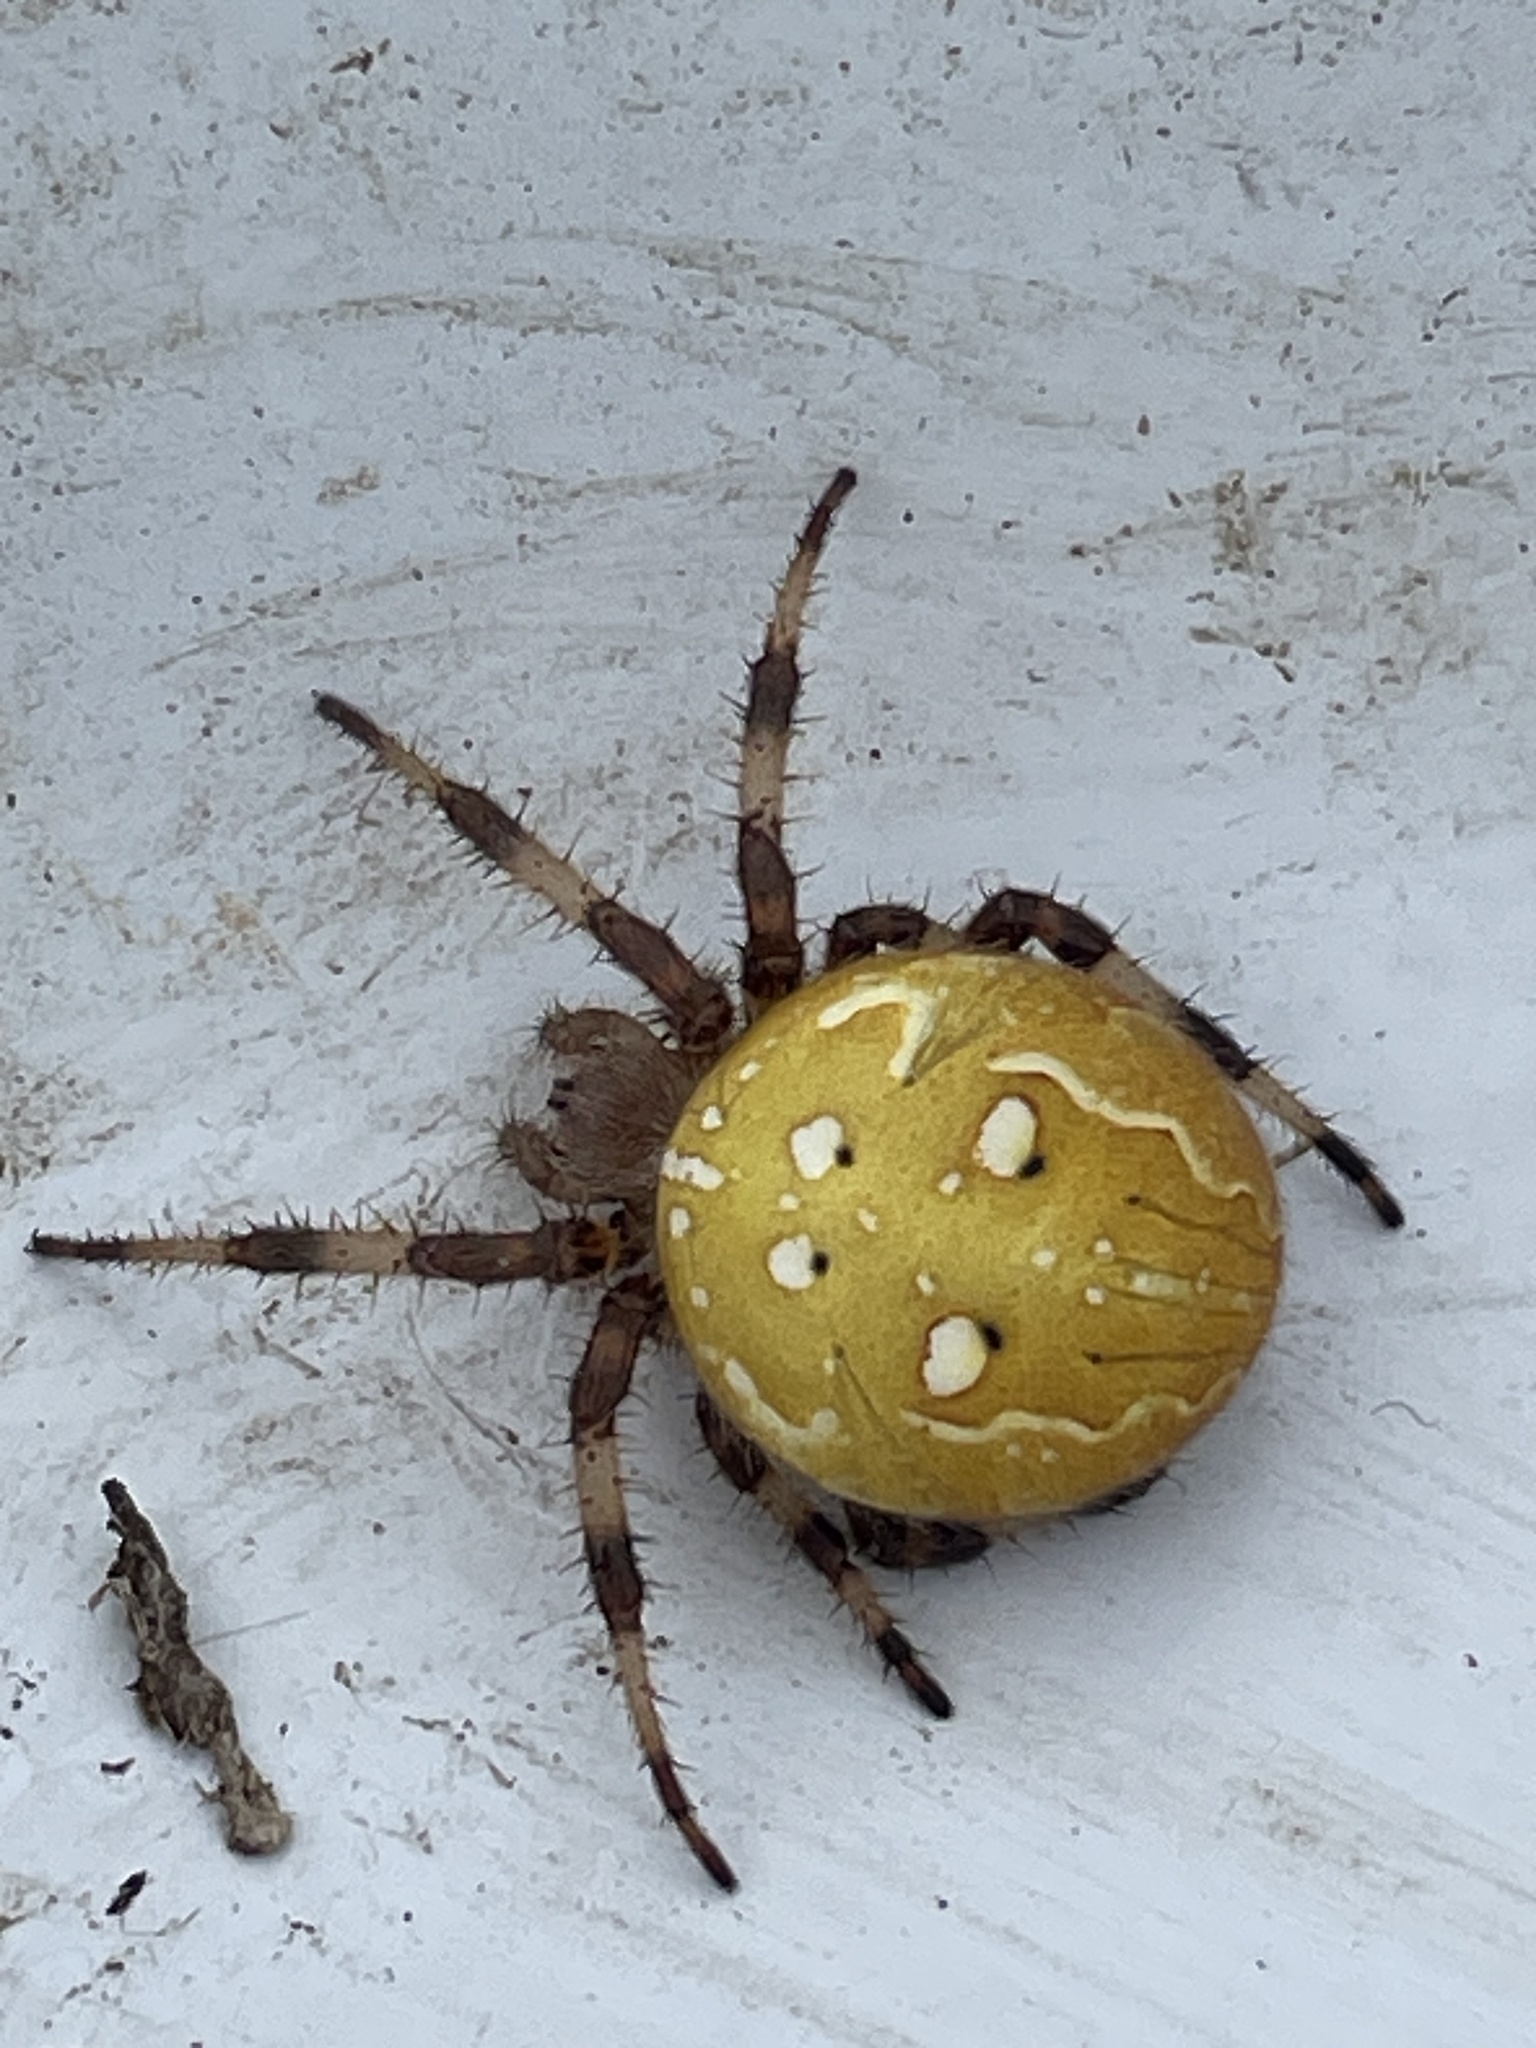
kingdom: Animalia
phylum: Arthropoda
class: Arachnida
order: Araneae
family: Araneidae
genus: Araneus
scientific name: Araneus quadratus
